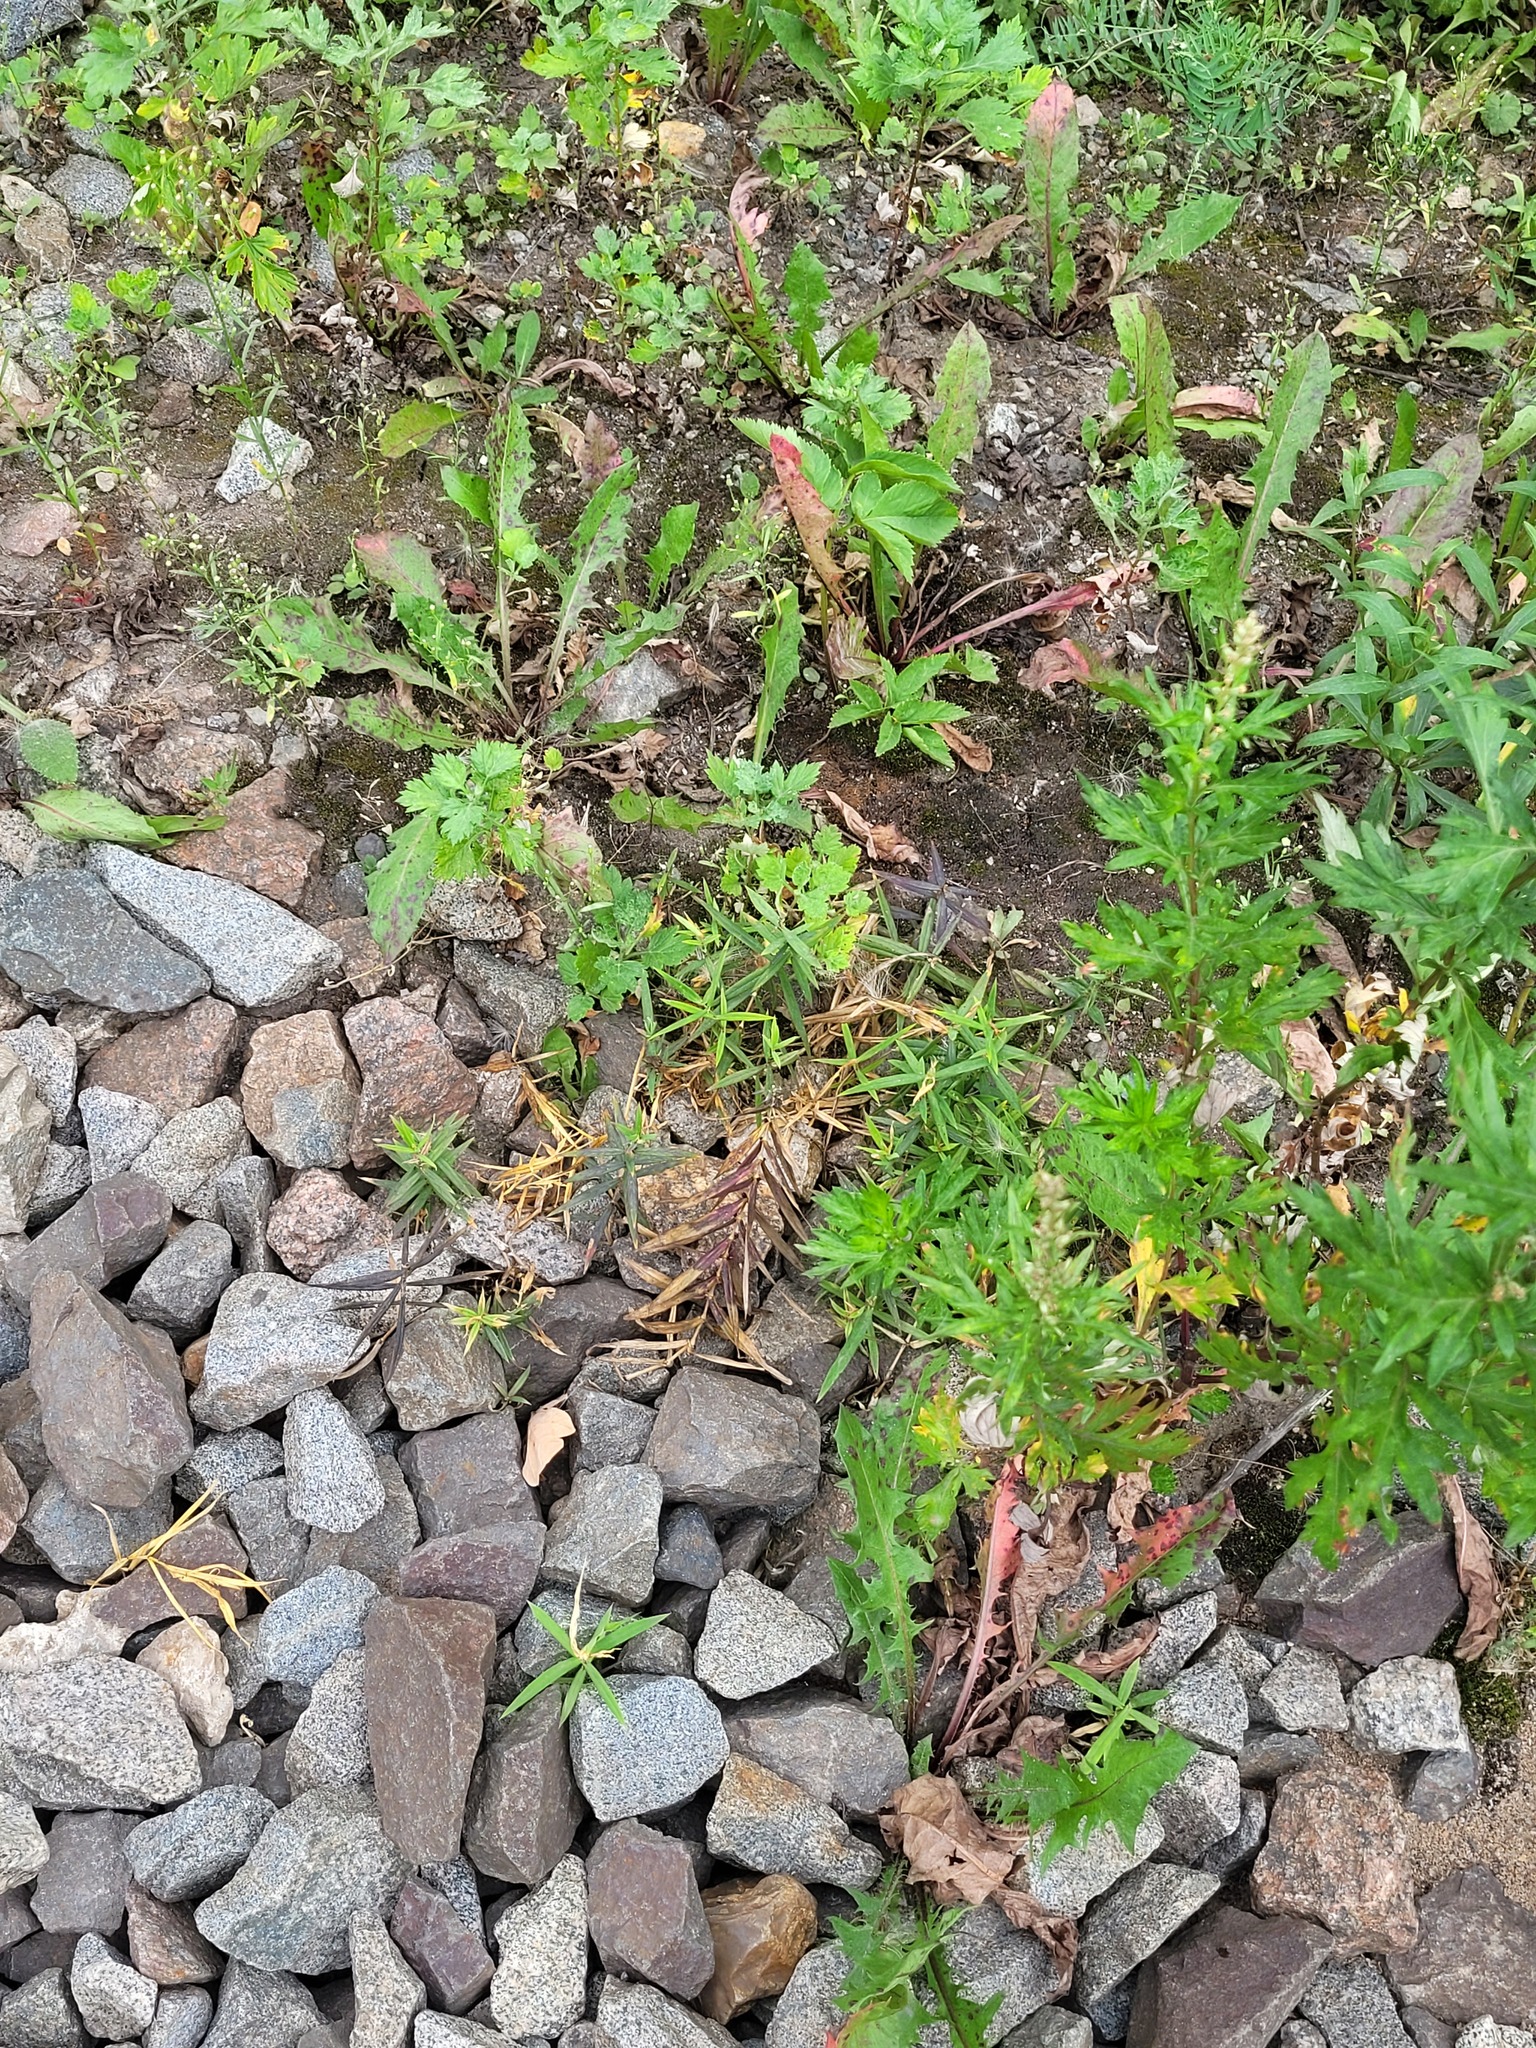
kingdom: Plantae
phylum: Tracheophyta
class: Magnoliopsida
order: Caryophyllales
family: Caryophyllaceae
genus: Rabelera
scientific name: Rabelera holostea
